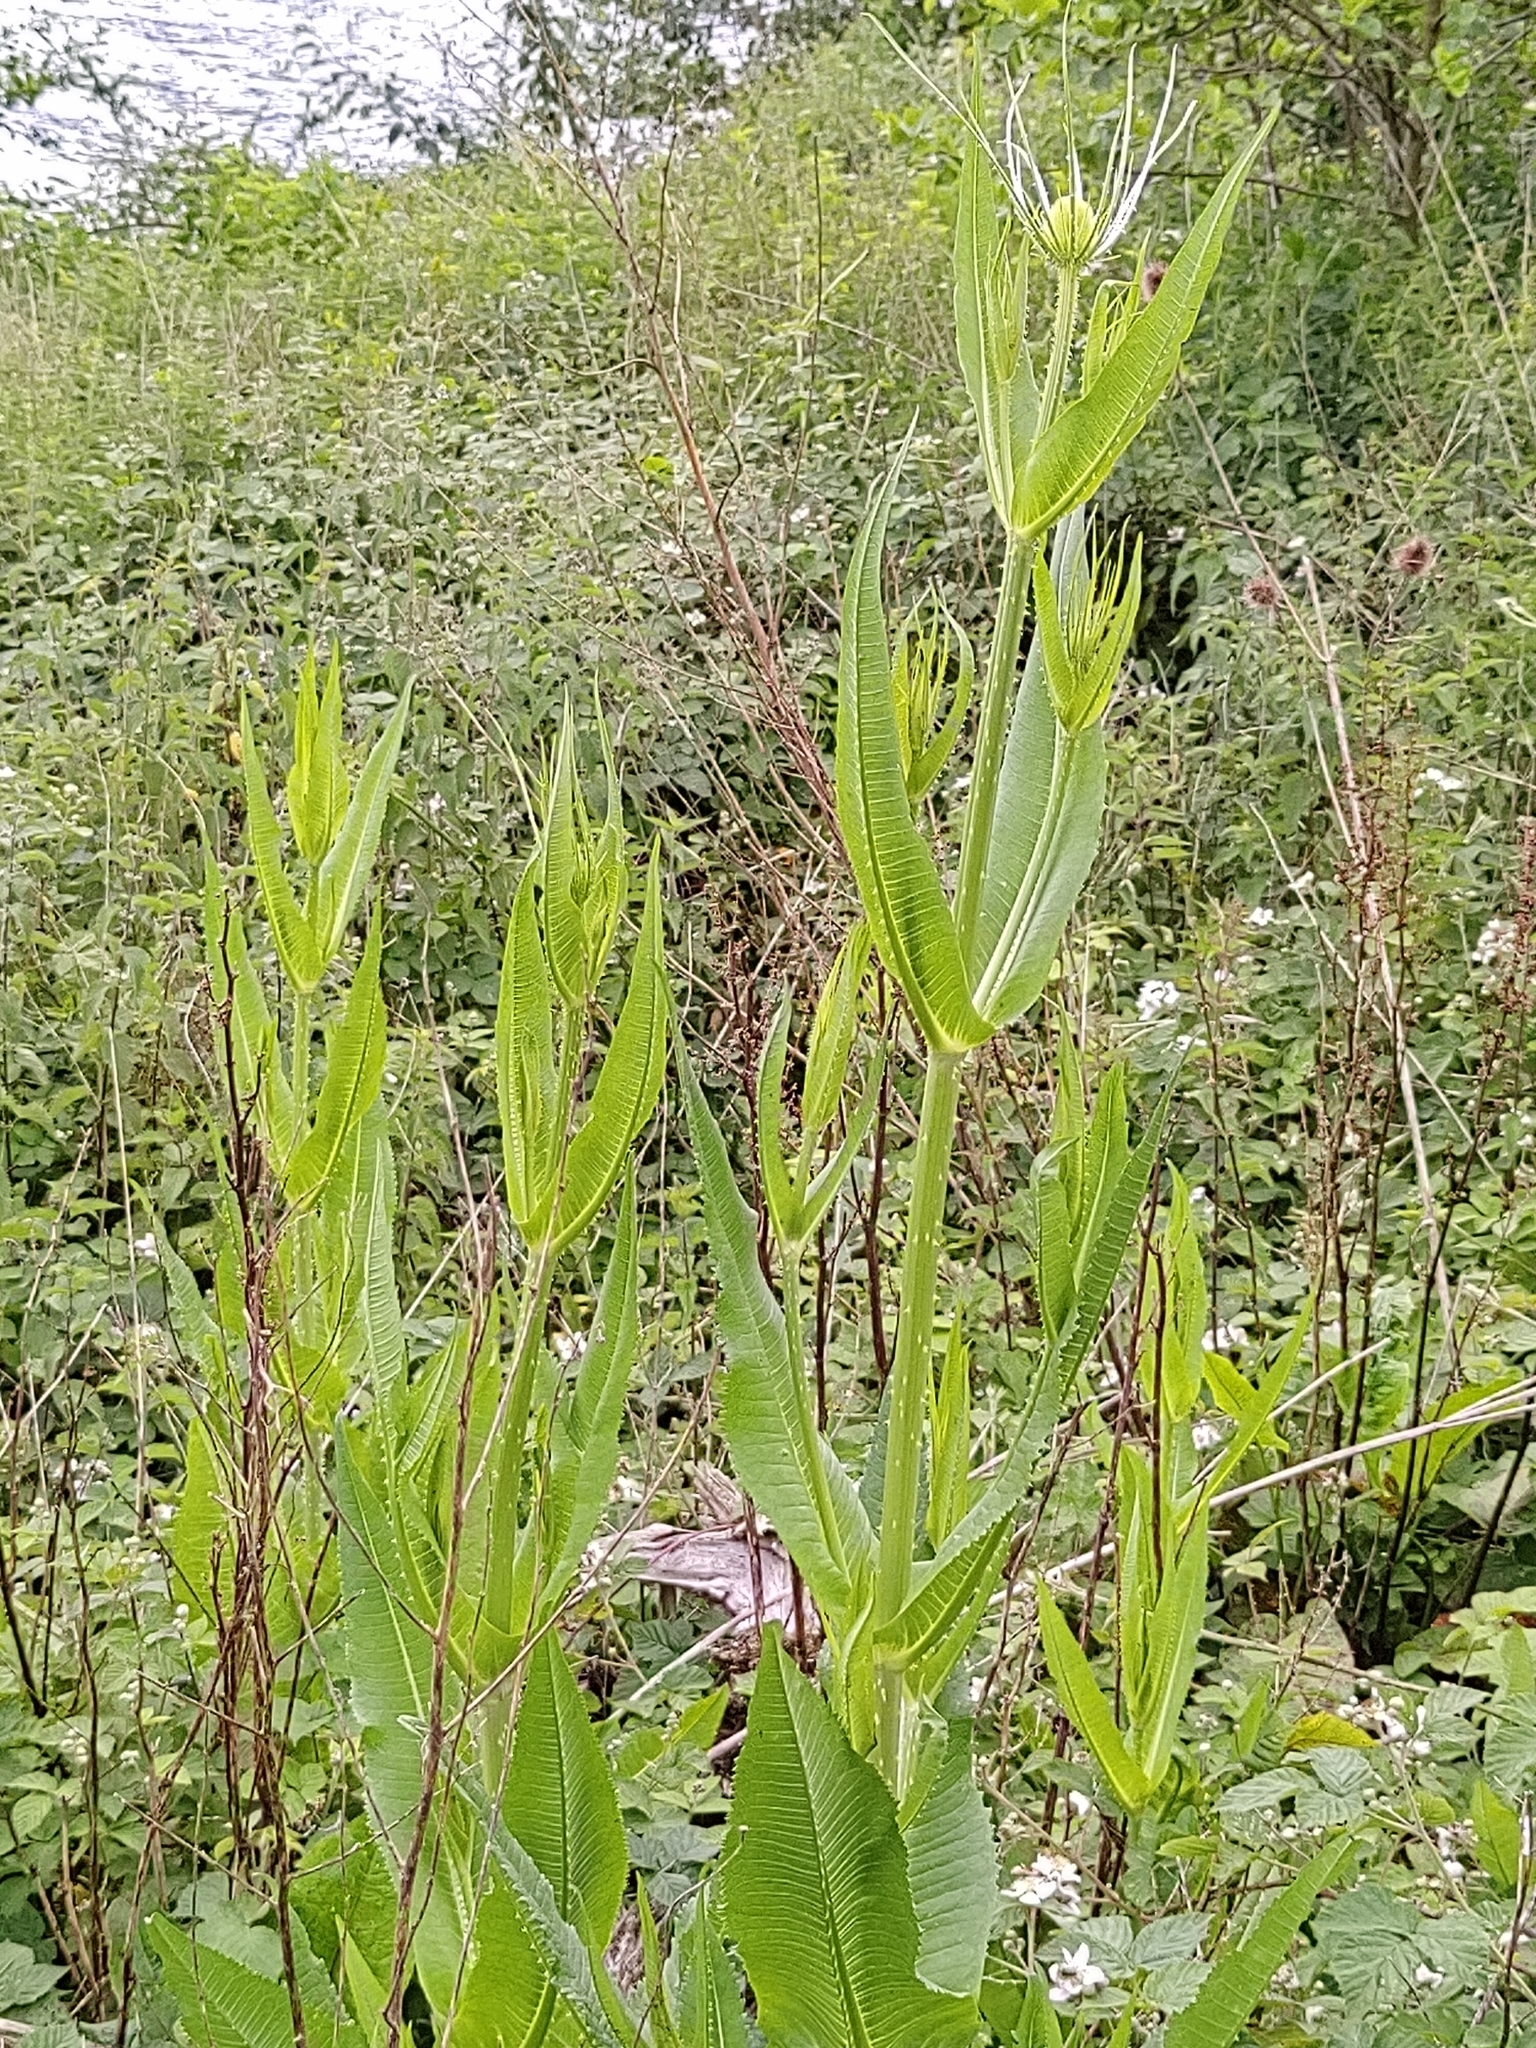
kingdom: Plantae
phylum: Tracheophyta
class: Magnoliopsida
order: Dipsacales
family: Caprifoliaceae
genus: Dipsacus
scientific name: Dipsacus fullonum
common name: Teasel
